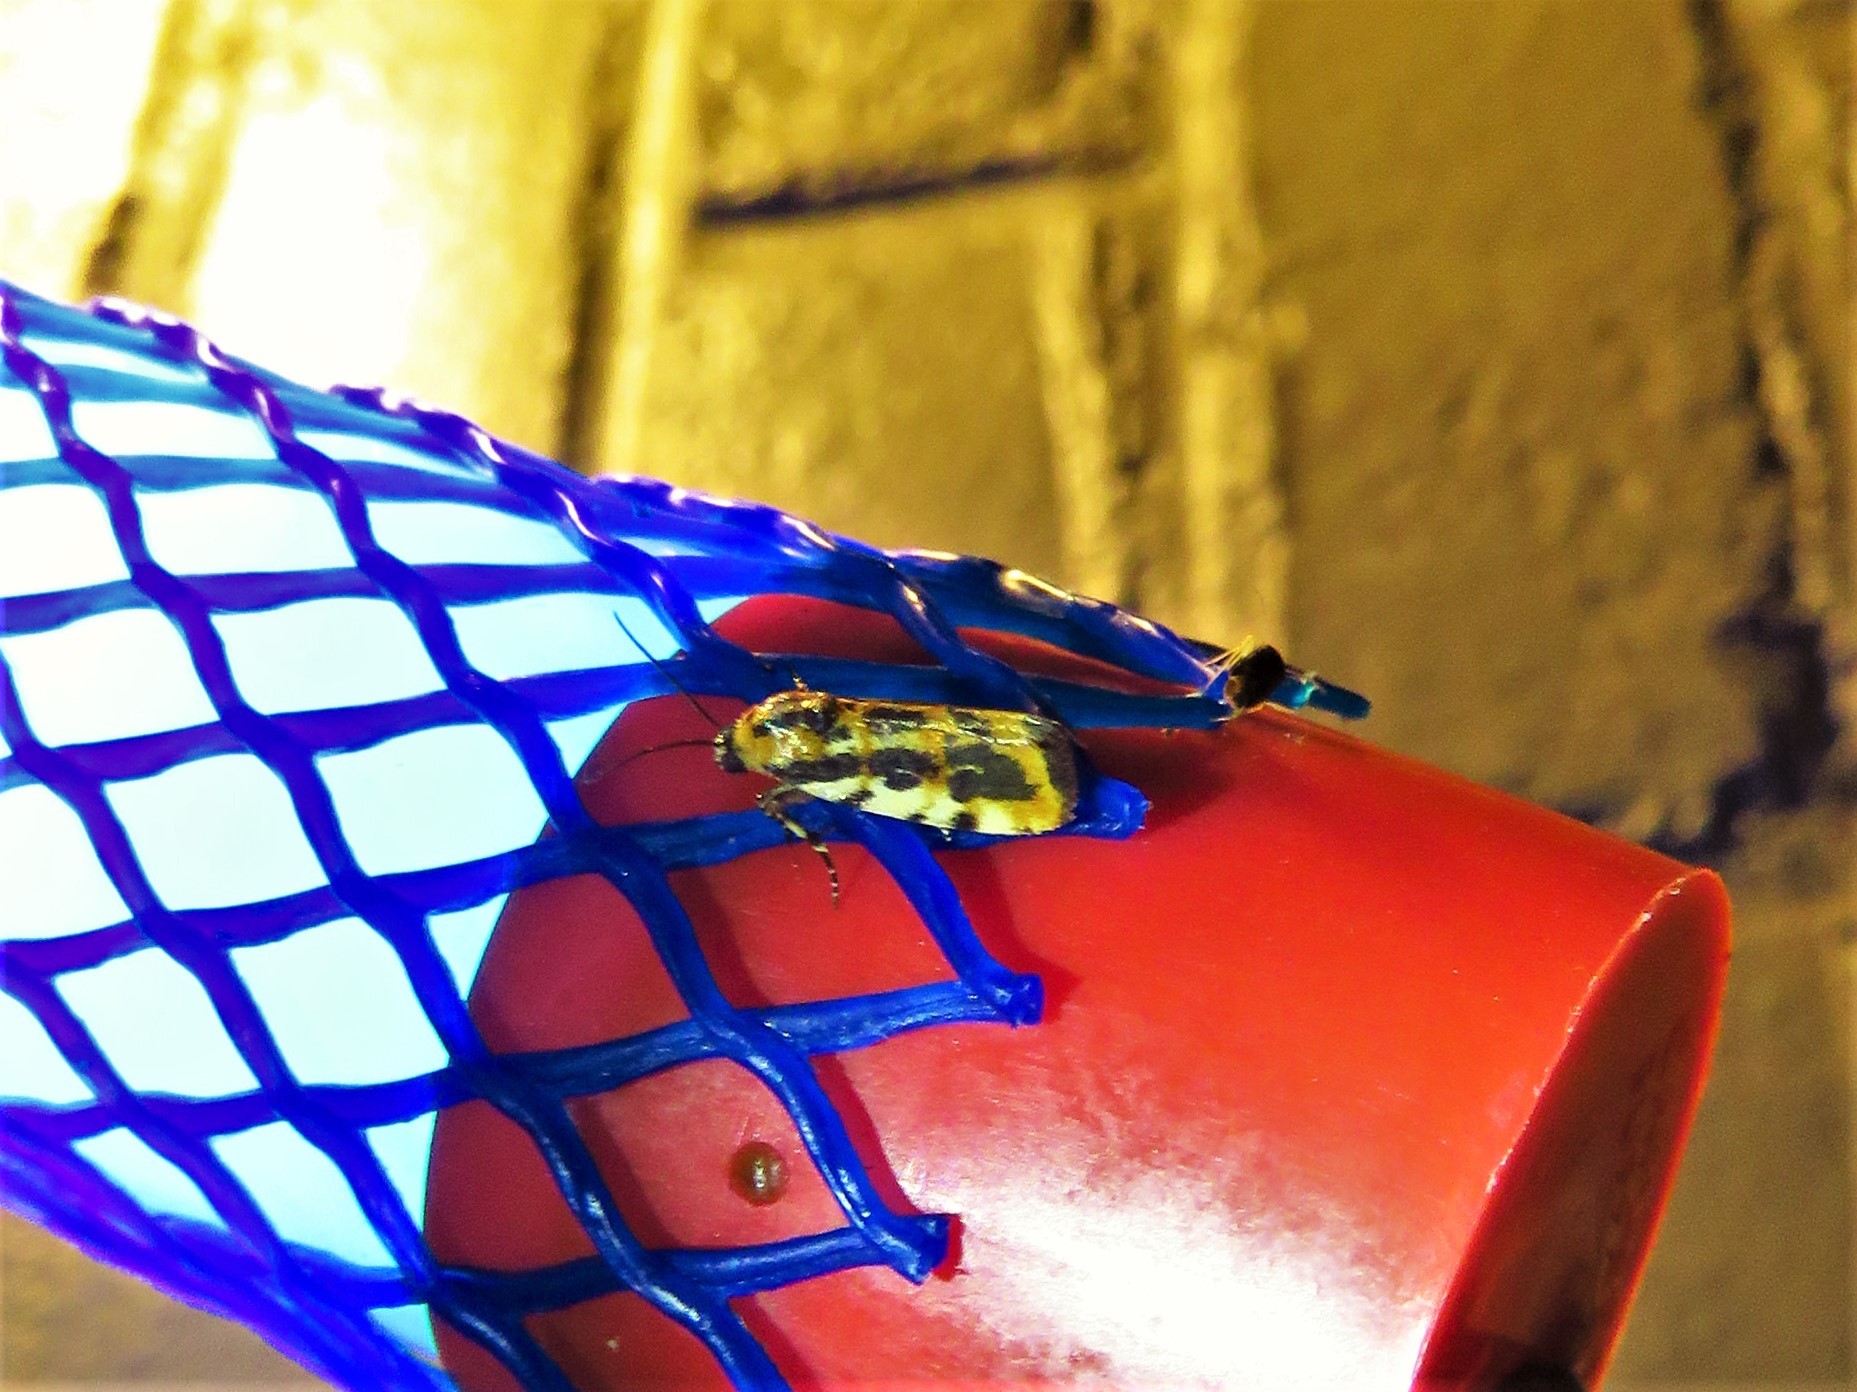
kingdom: Animalia
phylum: Arthropoda
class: Insecta
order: Lepidoptera
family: Noctuidae
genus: Acontia
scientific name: Acontia leo
